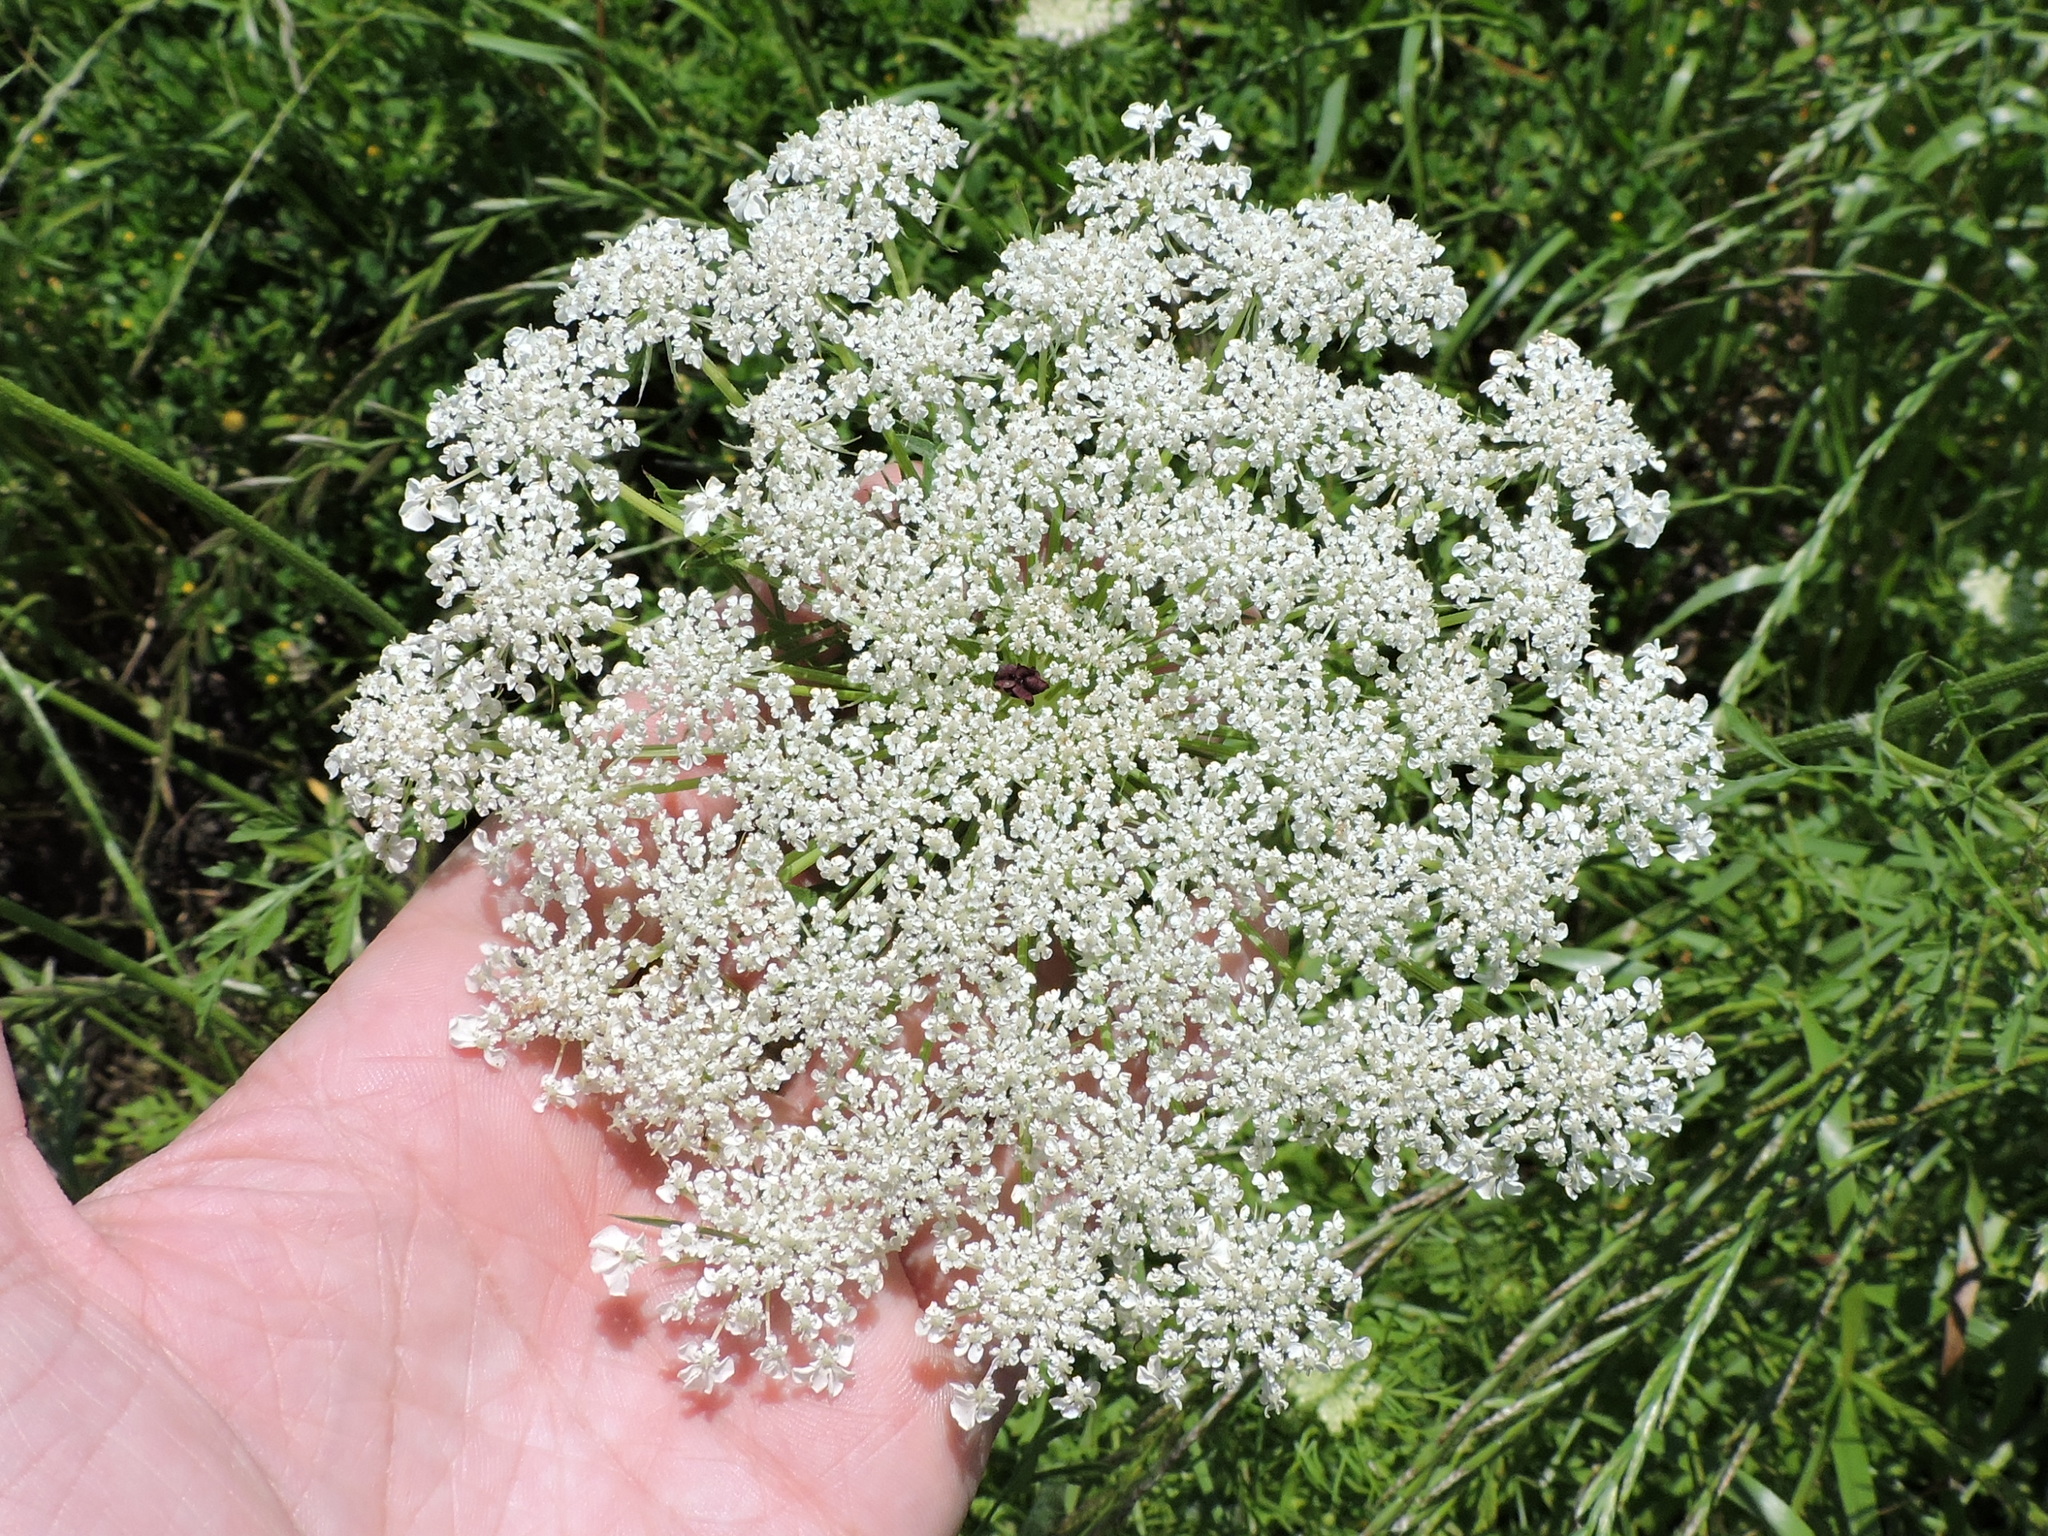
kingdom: Plantae
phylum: Tracheophyta
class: Magnoliopsida
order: Apiales
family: Apiaceae
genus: Daucus
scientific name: Daucus carota
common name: Wild carrot
